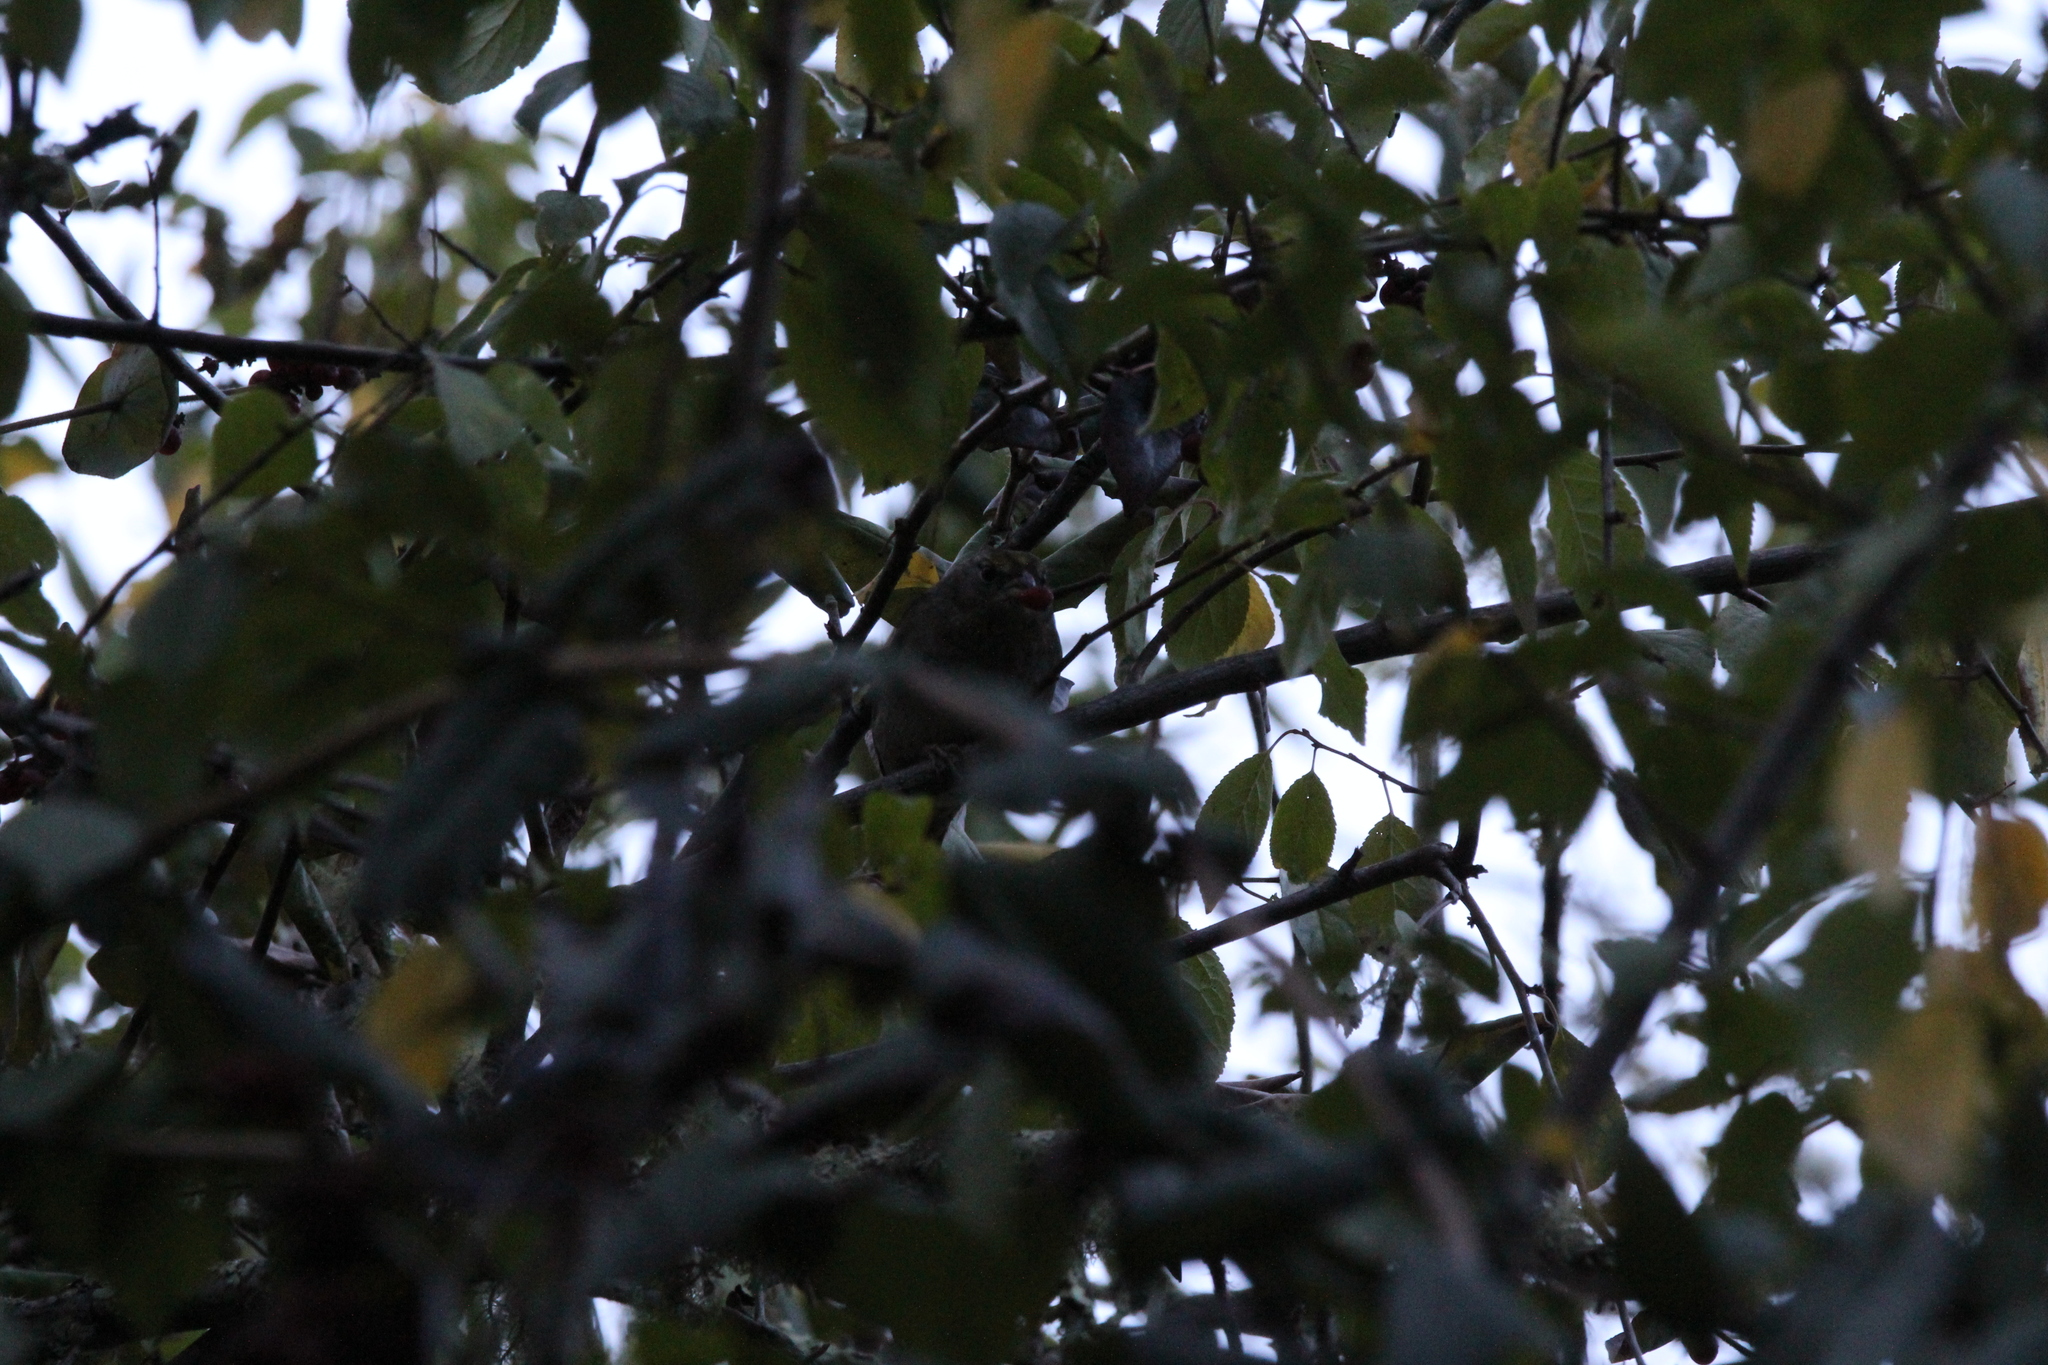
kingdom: Animalia
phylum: Chordata
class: Aves
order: Passeriformes
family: Passerellidae
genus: Zonotrichia
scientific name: Zonotrichia atricapilla
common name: Golden-crowned sparrow
